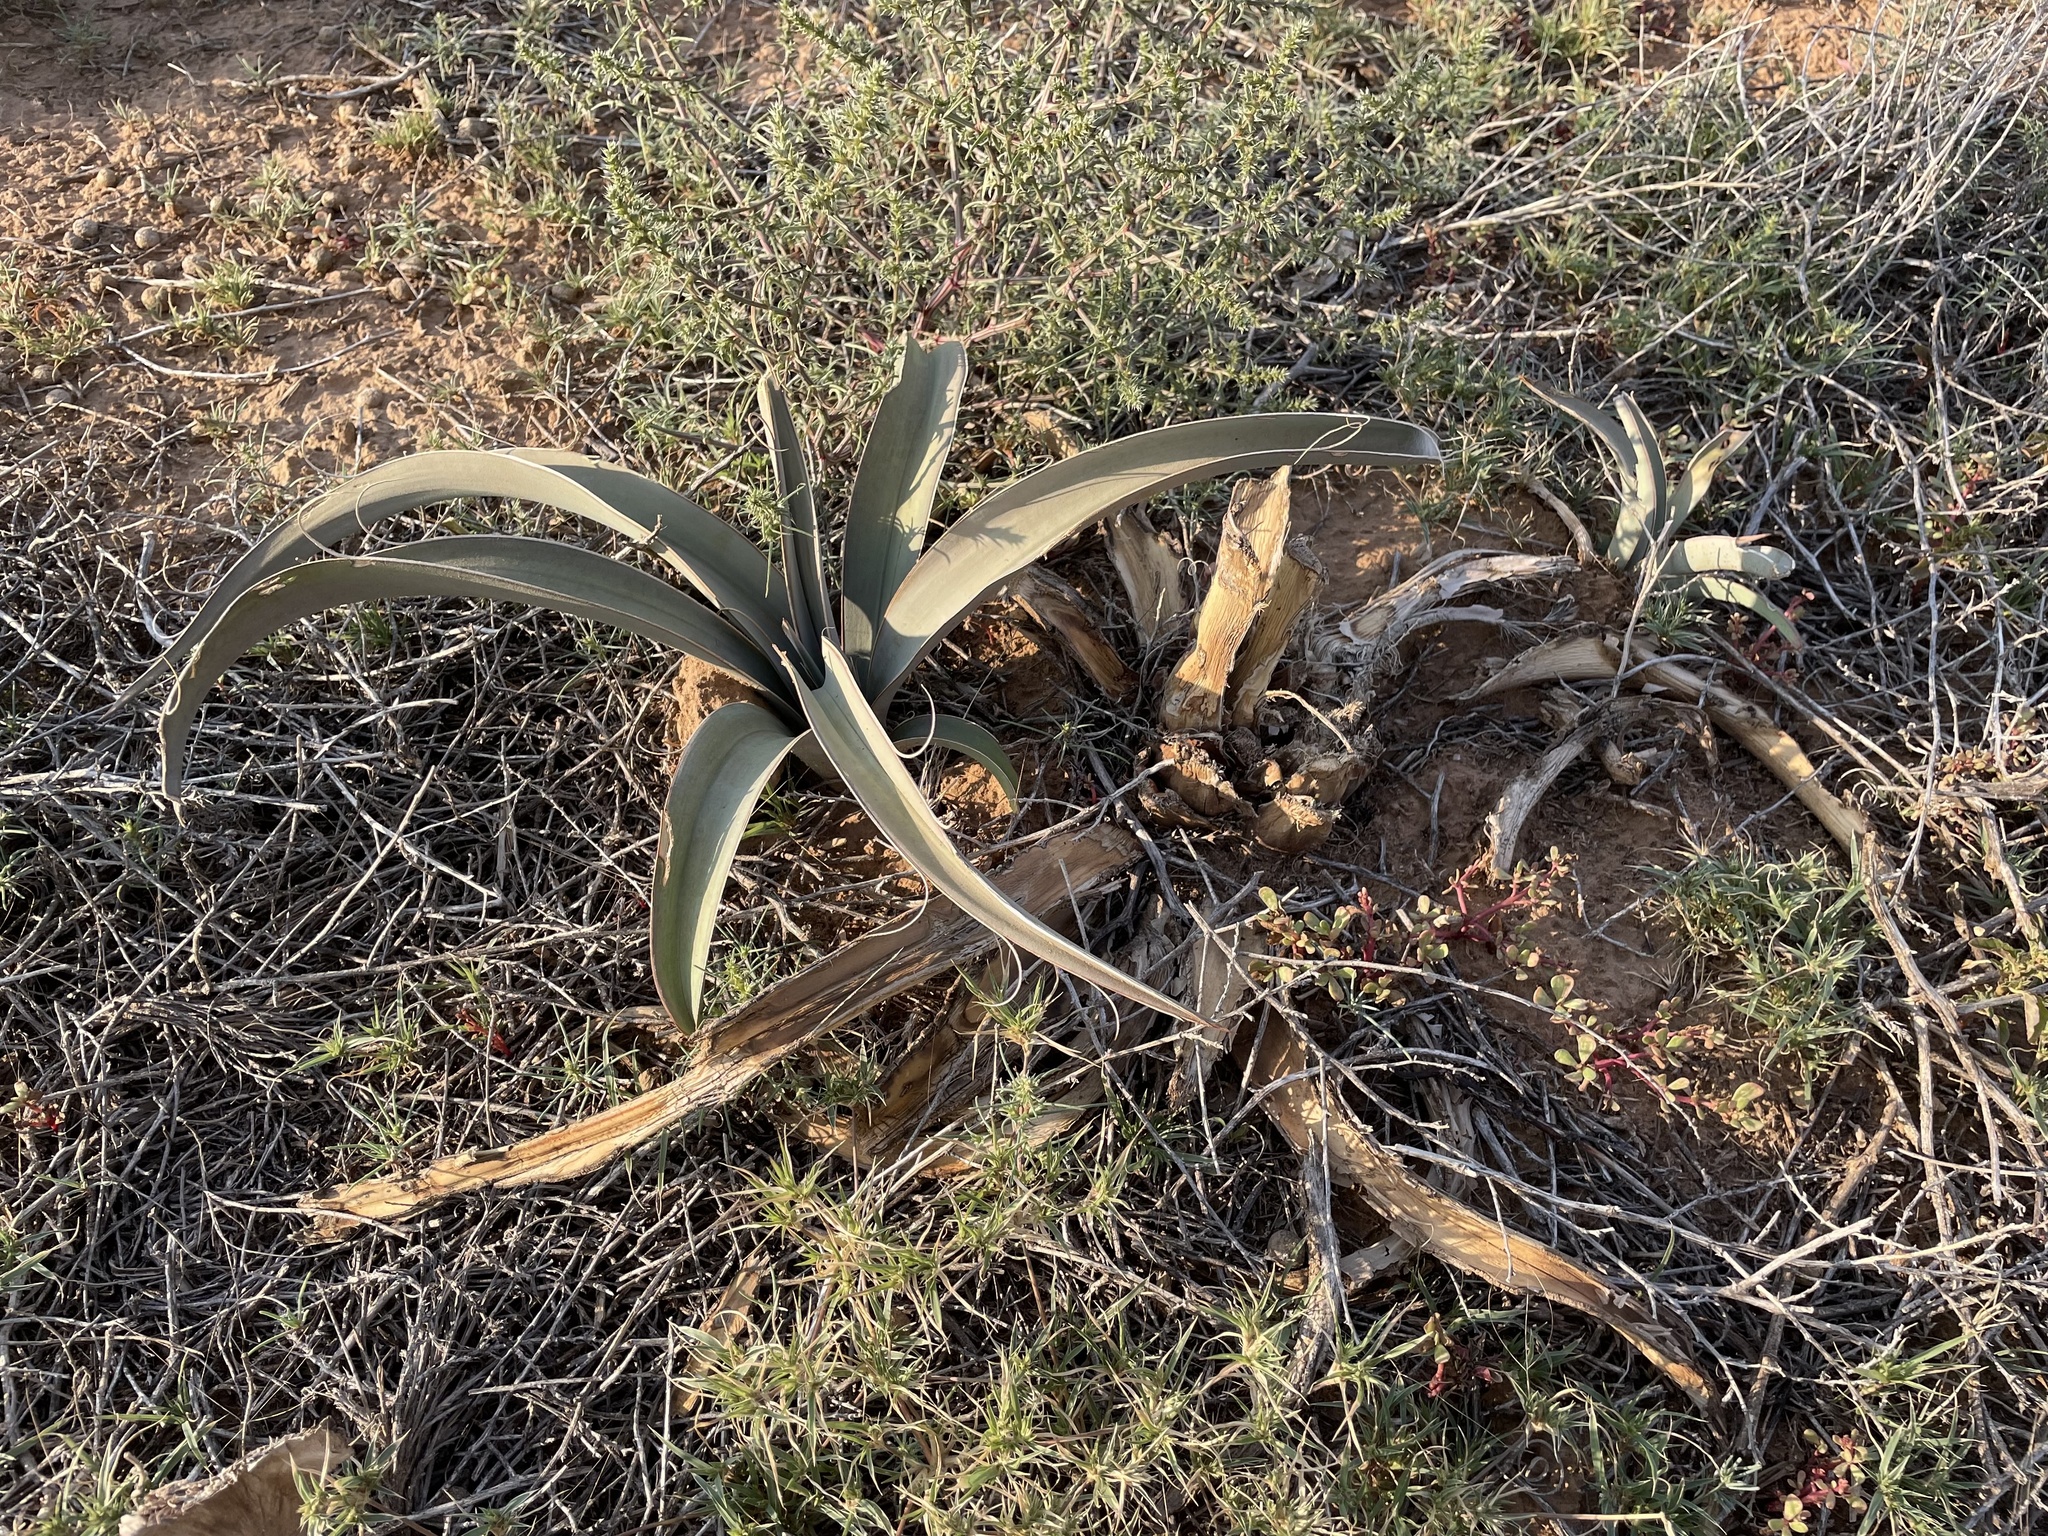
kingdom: Plantae
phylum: Tracheophyta
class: Liliopsida
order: Asparagales
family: Asparagaceae
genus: Yucca
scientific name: Yucca baccata
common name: Banana yucca
